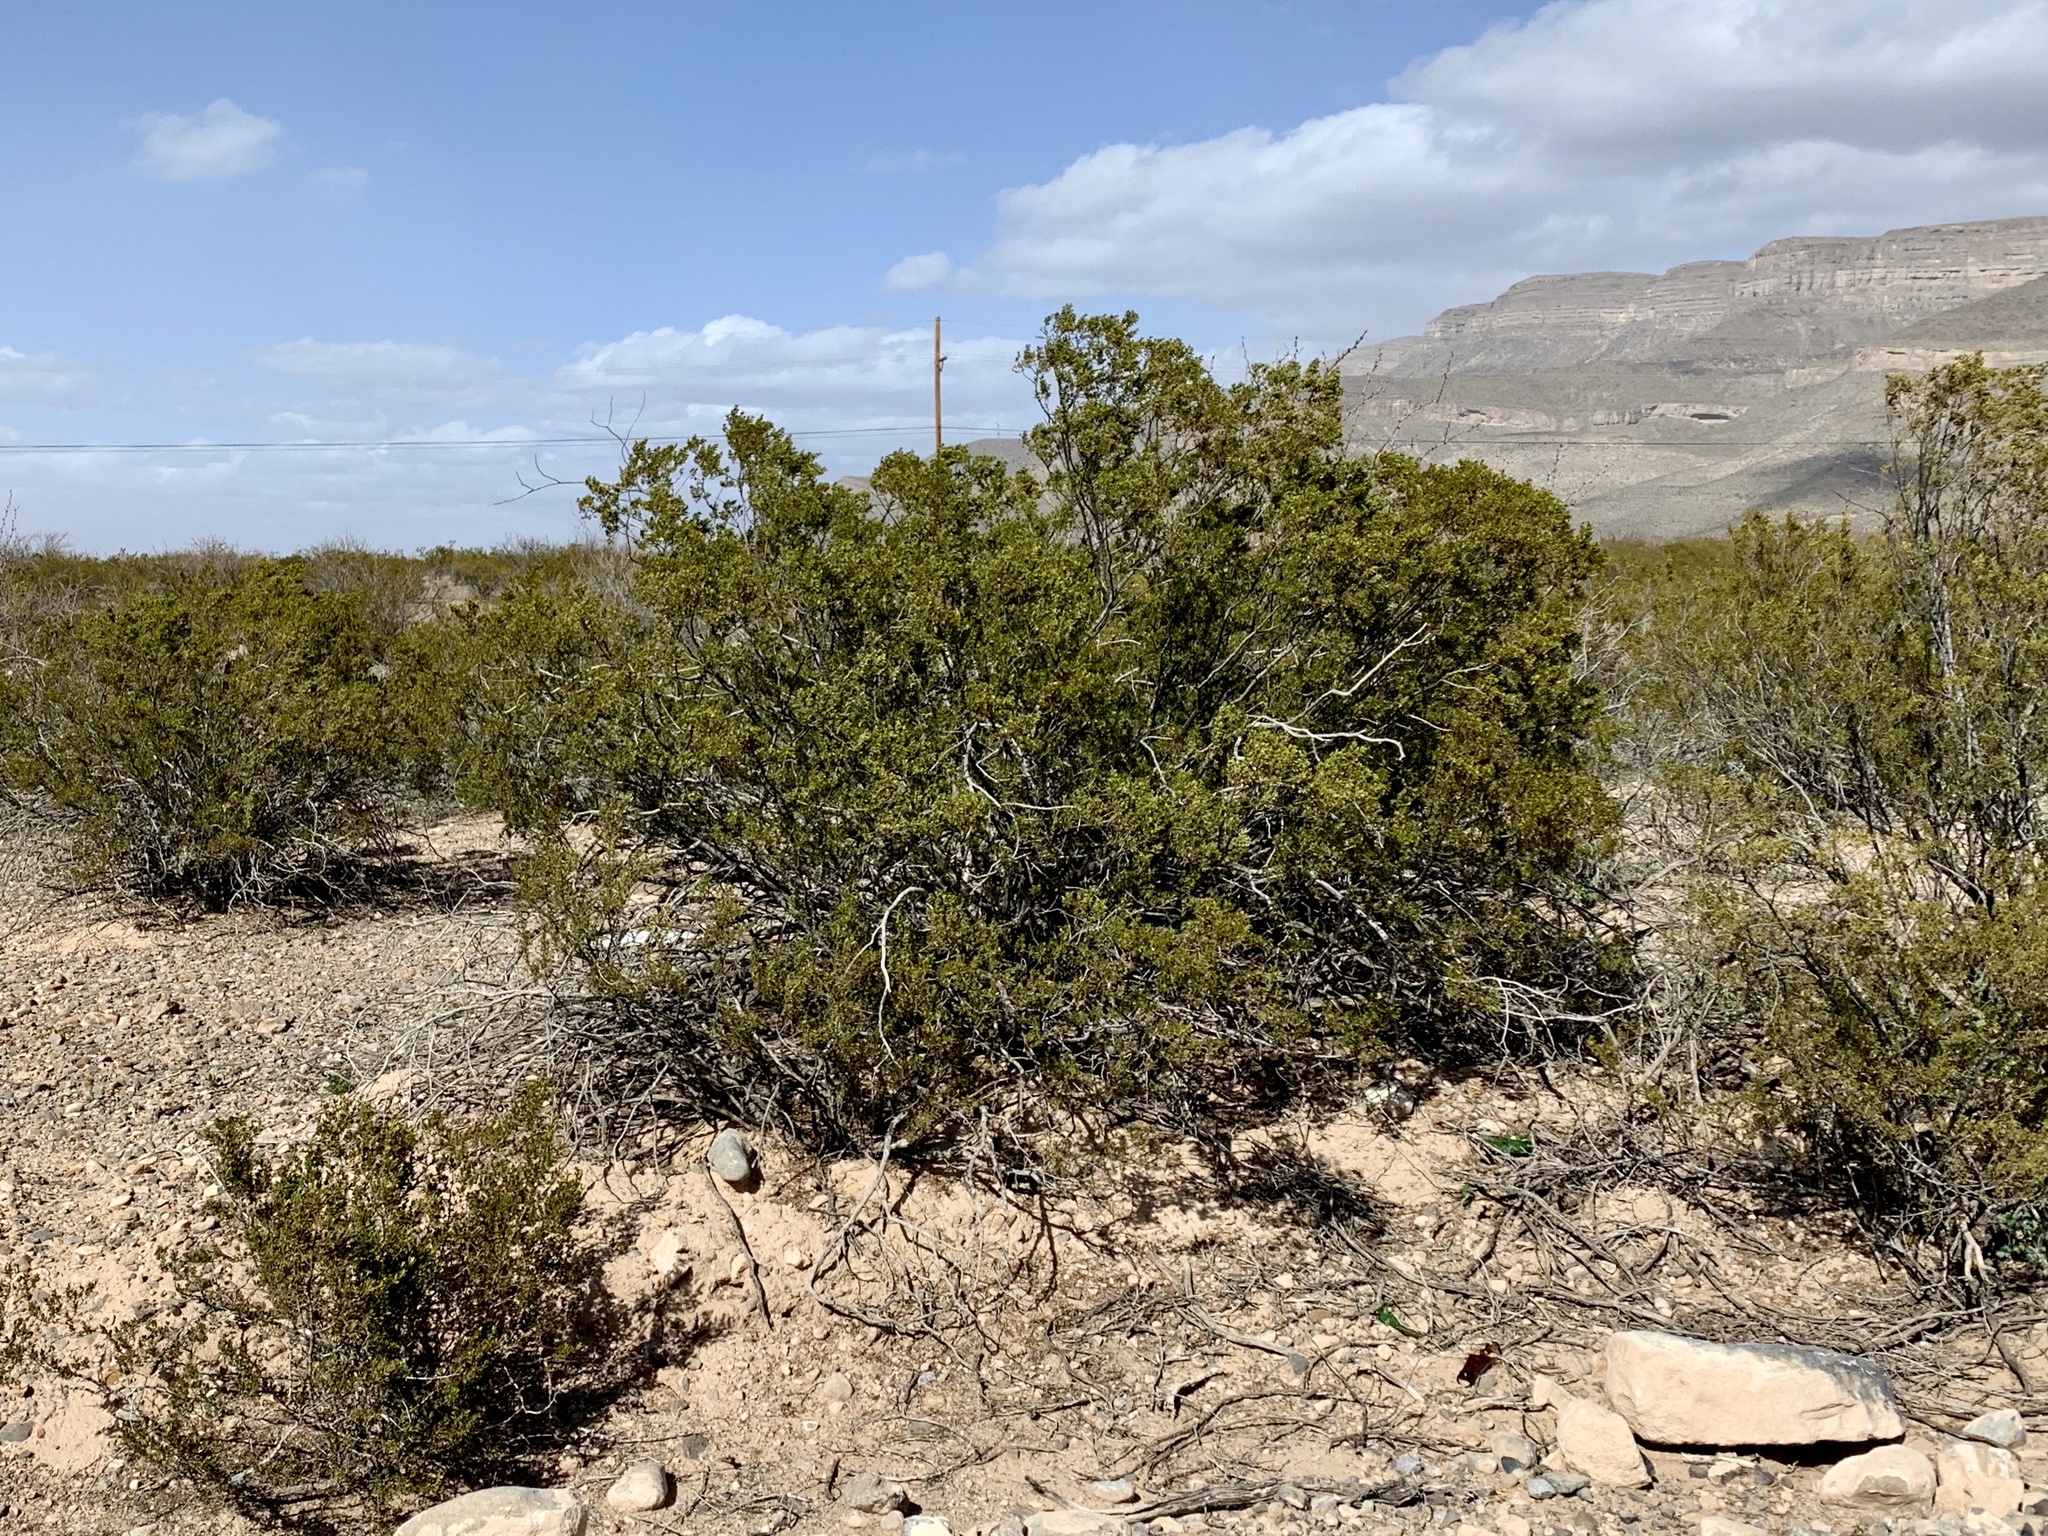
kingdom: Plantae
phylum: Tracheophyta
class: Magnoliopsida
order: Zygophyllales
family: Zygophyllaceae
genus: Larrea
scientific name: Larrea tridentata
